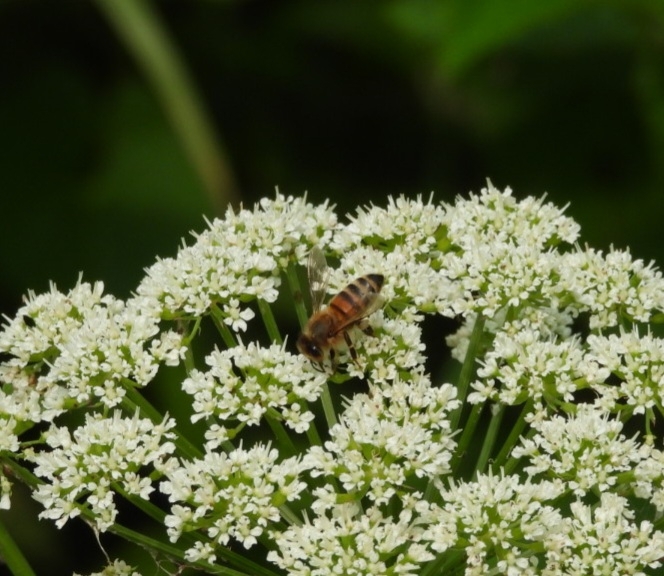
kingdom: Animalia
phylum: Arthropoda
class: Insecta
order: Hymenoptera
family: Apidae
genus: Apis
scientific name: Apis mellifera
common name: Honey bee
